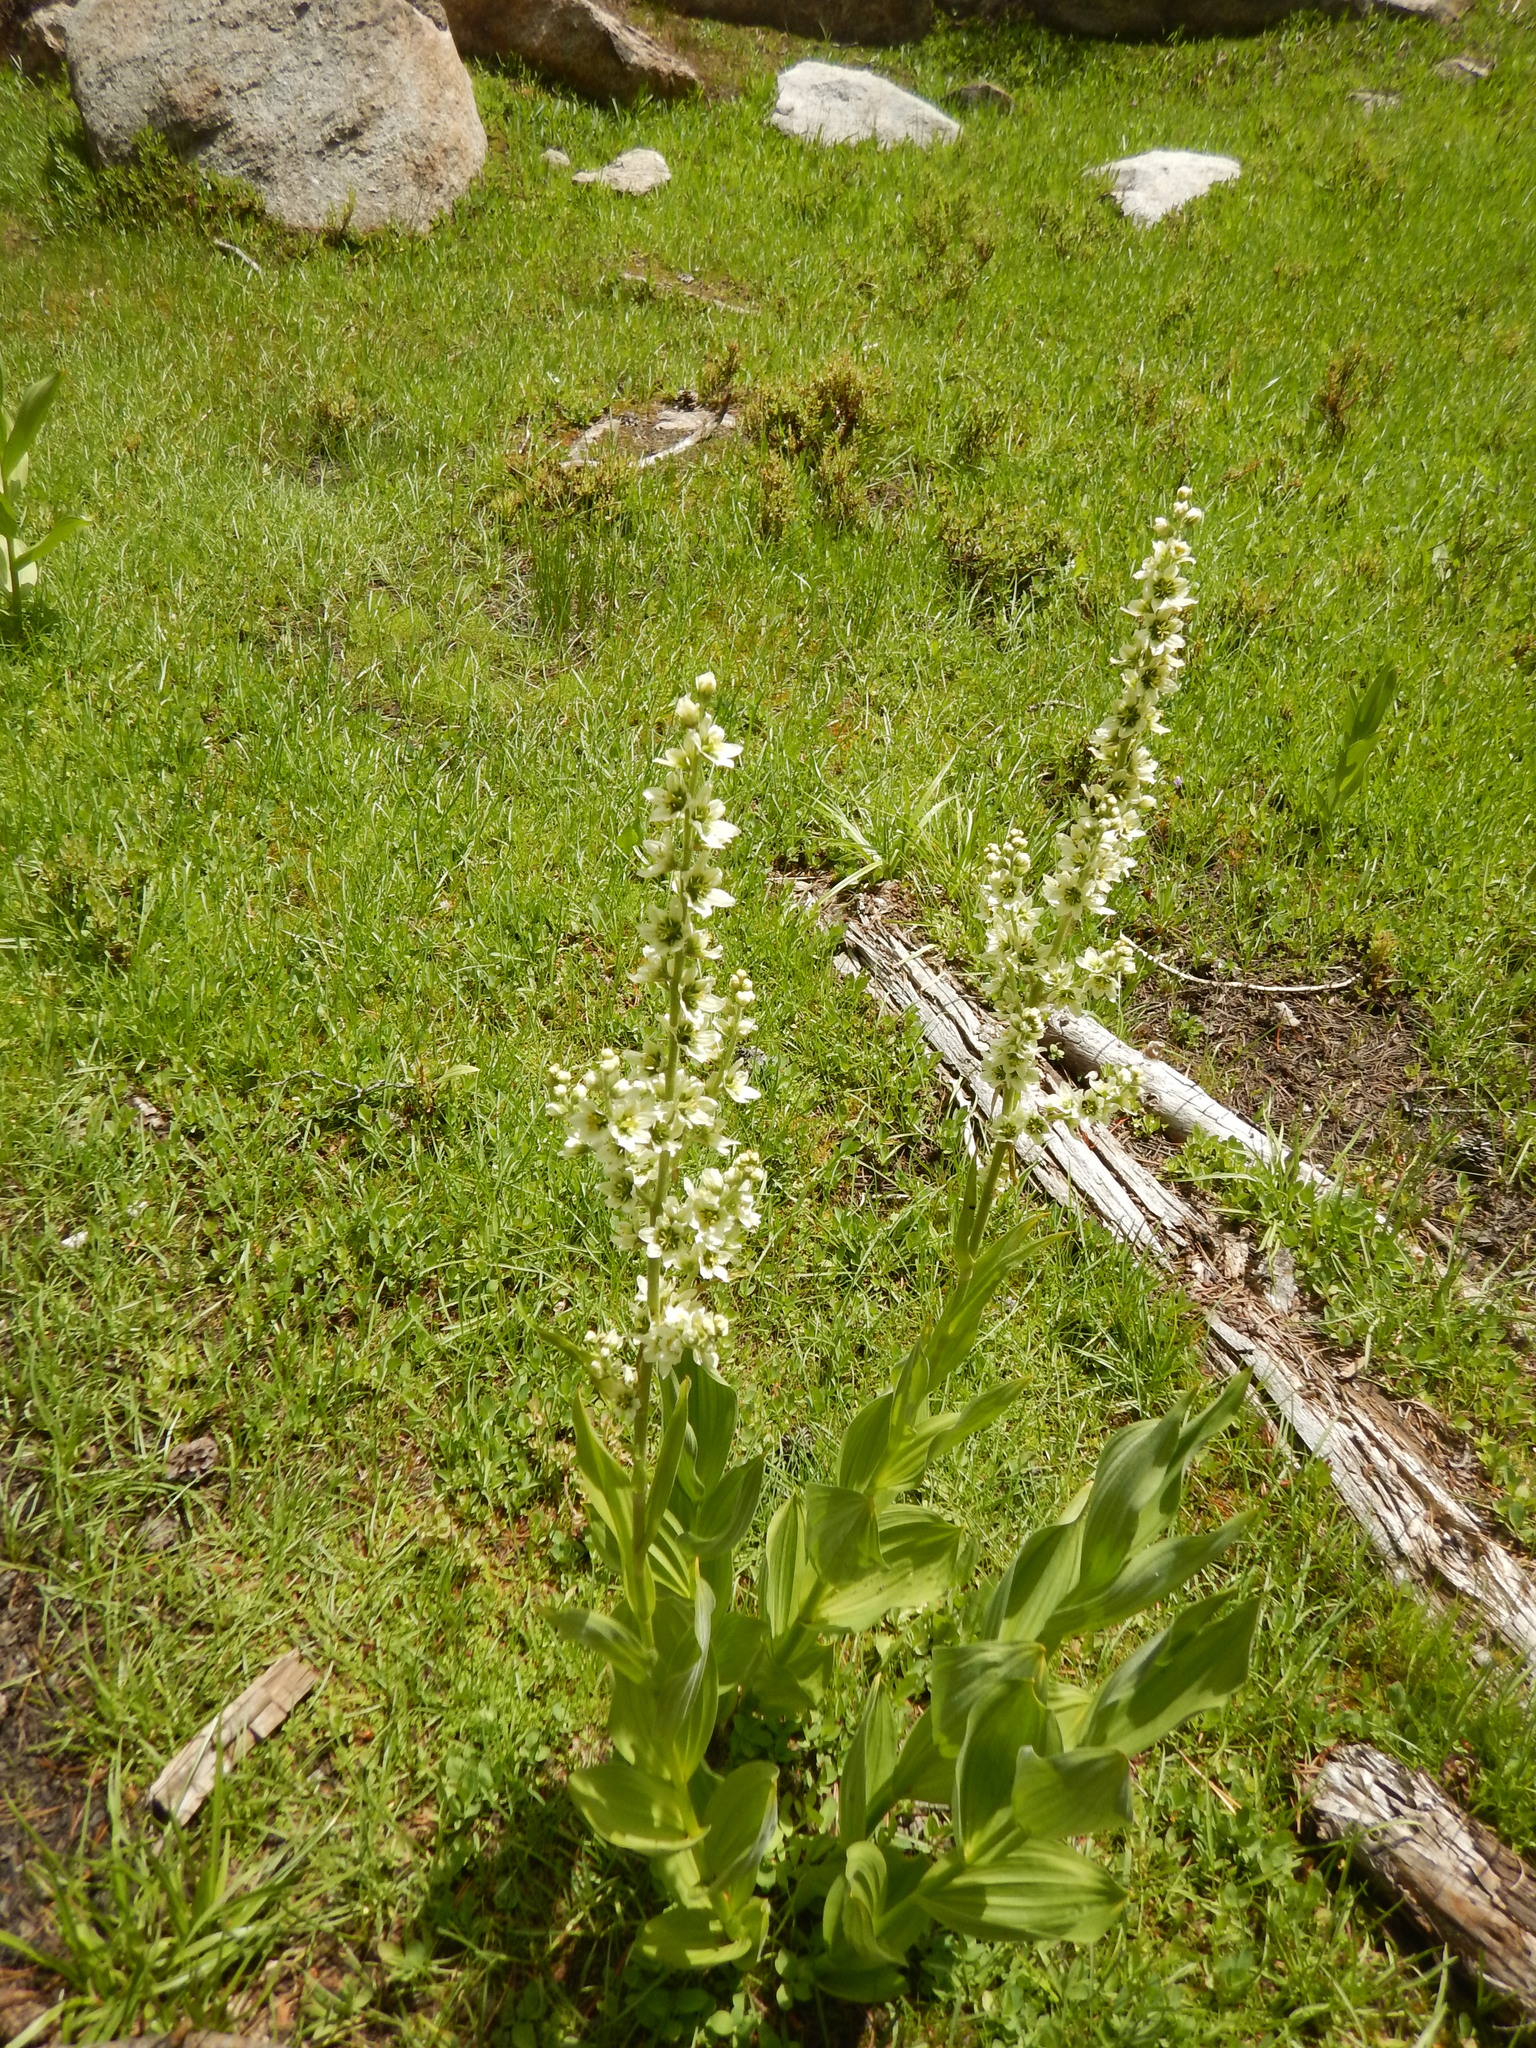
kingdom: Plantae
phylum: Tracheophyta
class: Liliopsida
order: Liliales
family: Melanthiaceae
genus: Veratrum
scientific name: Veratrum californicum
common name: California veratrum
